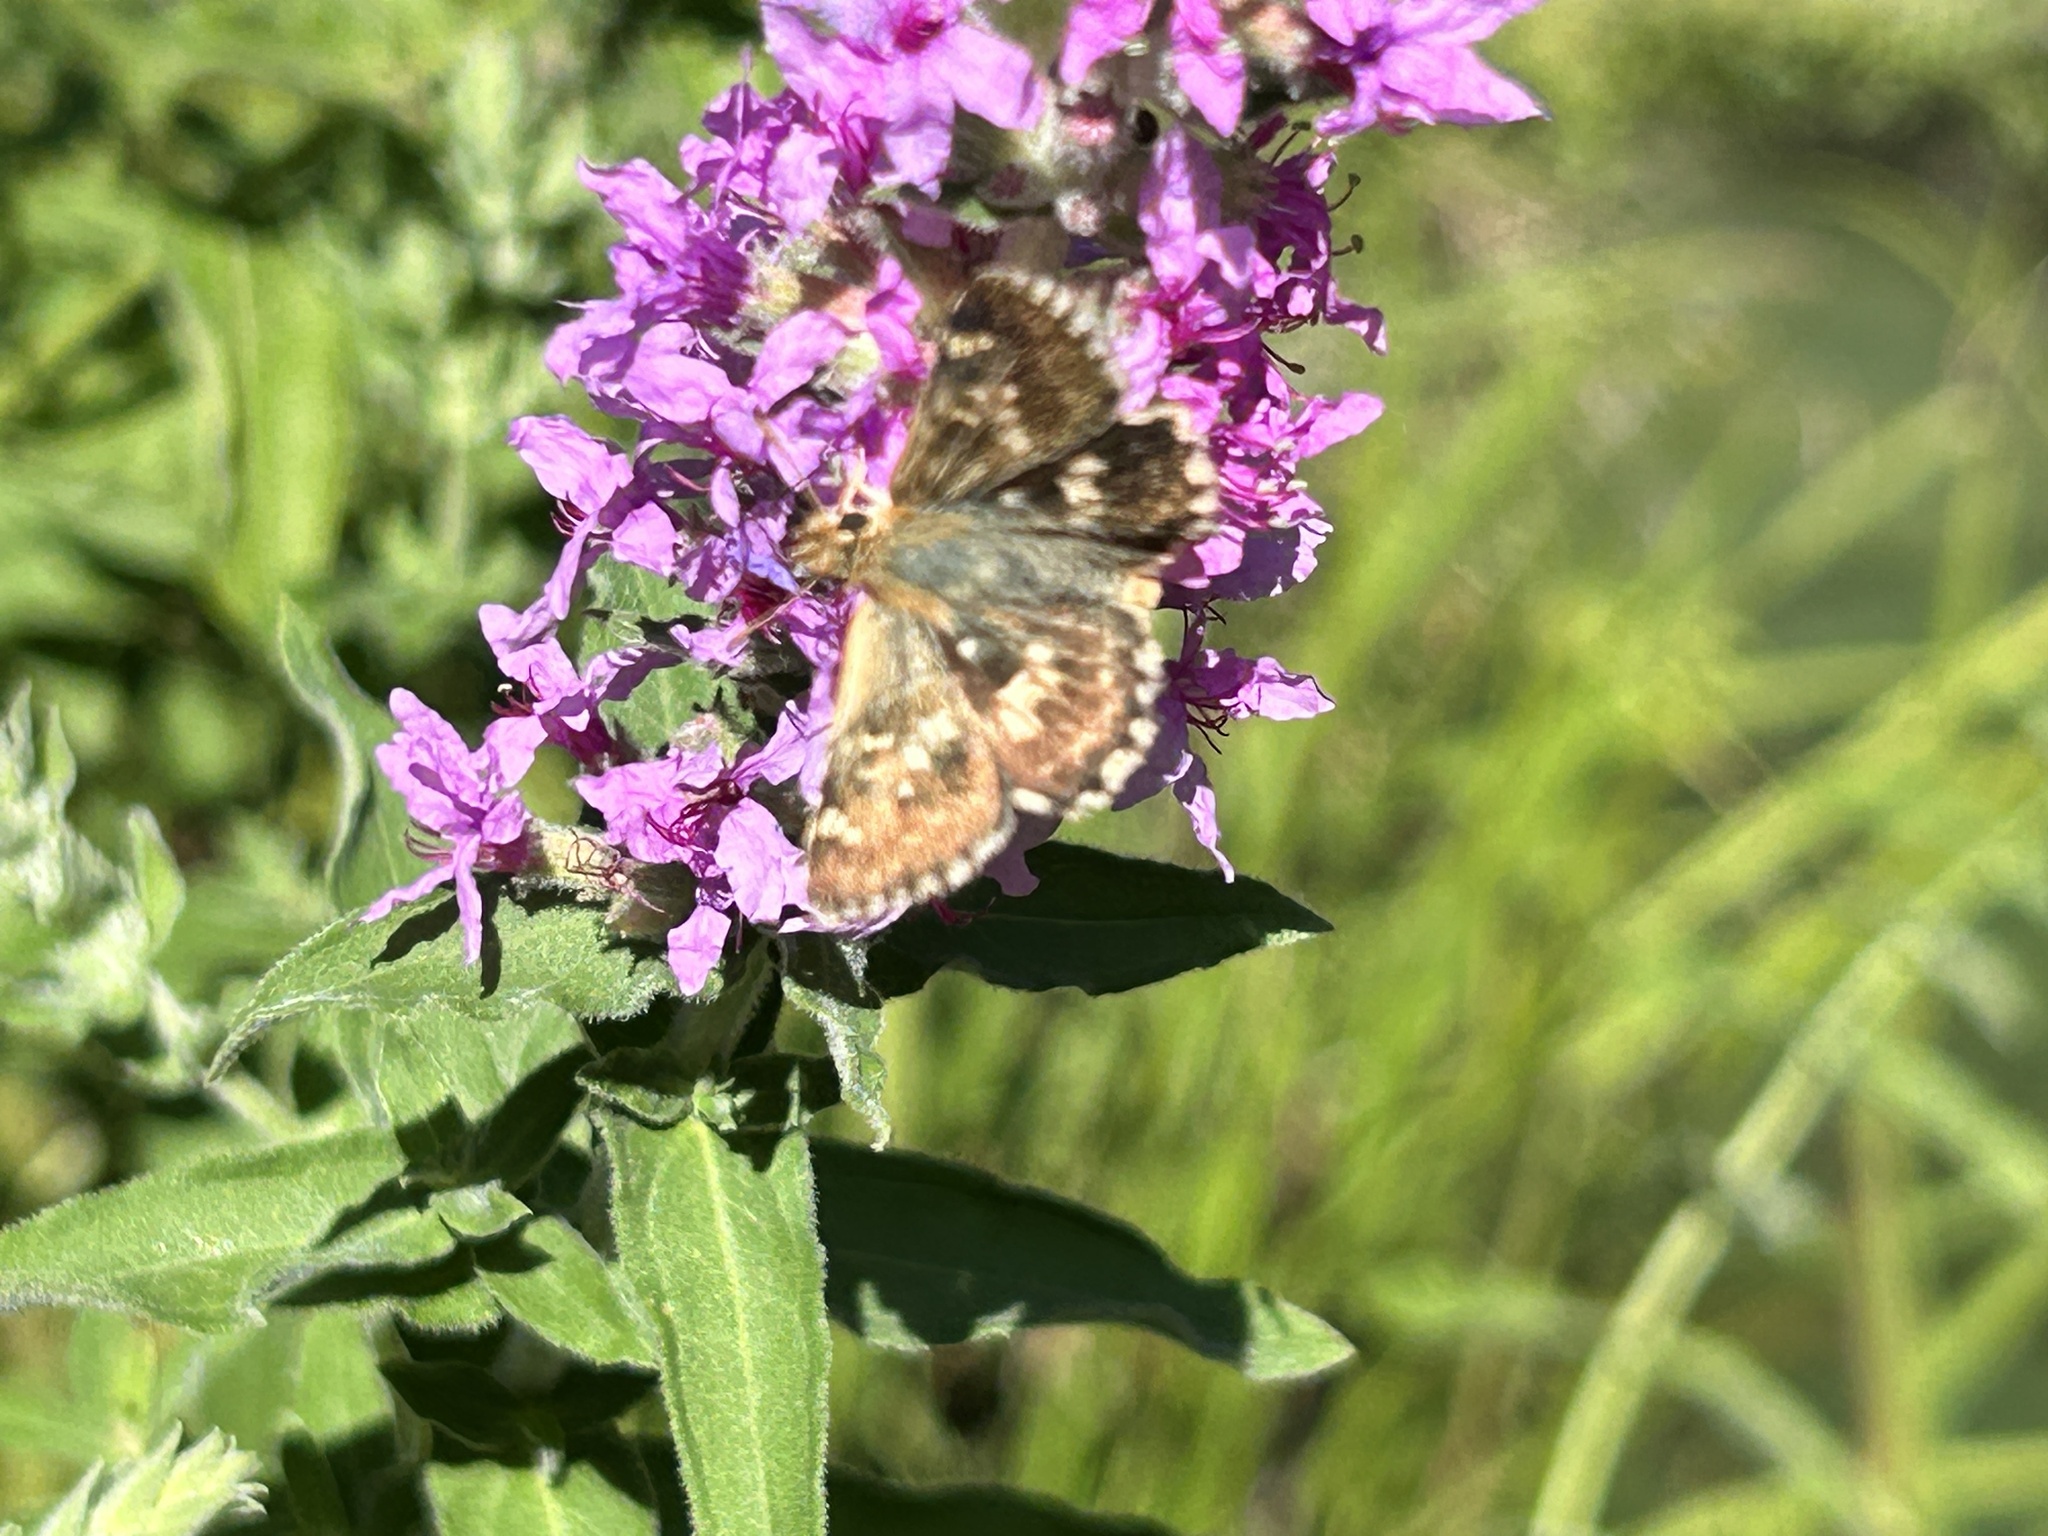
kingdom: Plantae
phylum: Tracheophyta
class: Magnoliopsida
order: Myrtales
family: Lythraceae
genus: Lythrum
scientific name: Lythrum salicaria
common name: Purple loosestrife
